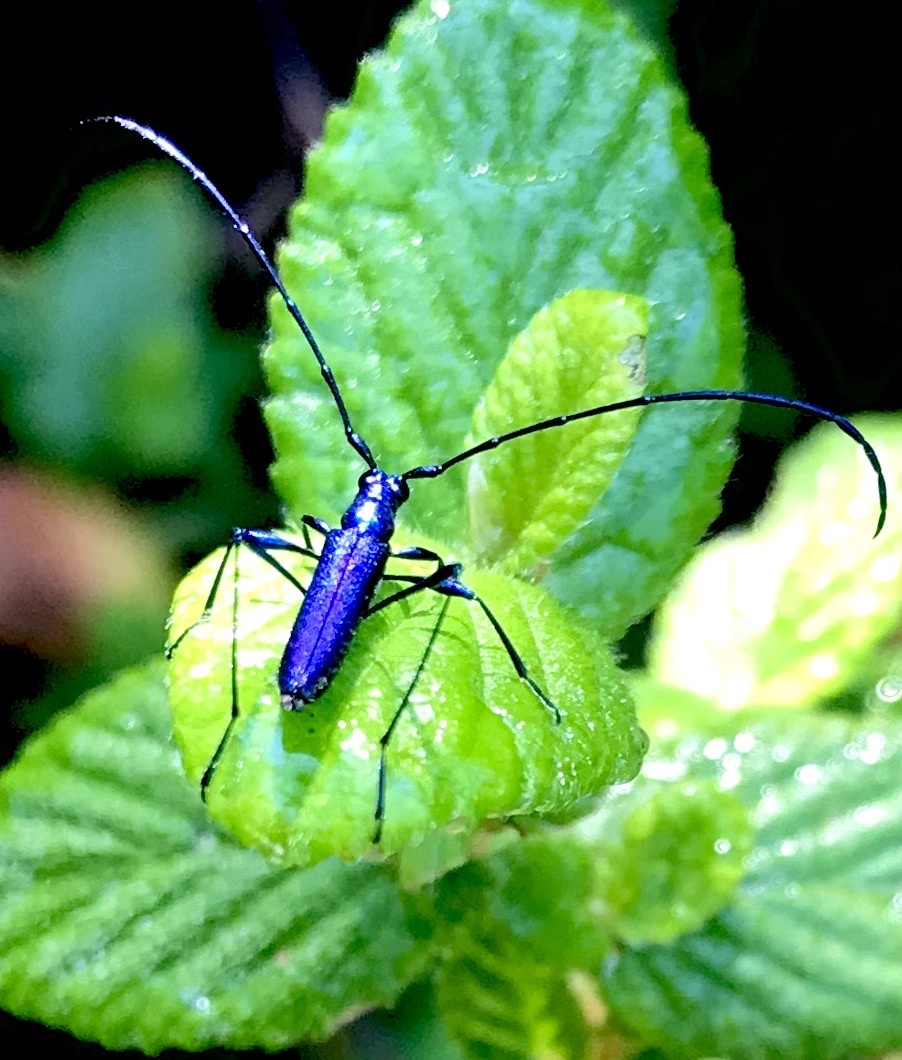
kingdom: Animalia
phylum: Arthropoda
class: Insecta
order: Coleoptera
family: Cerambycidae
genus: Promeces
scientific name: Promeces longipes
